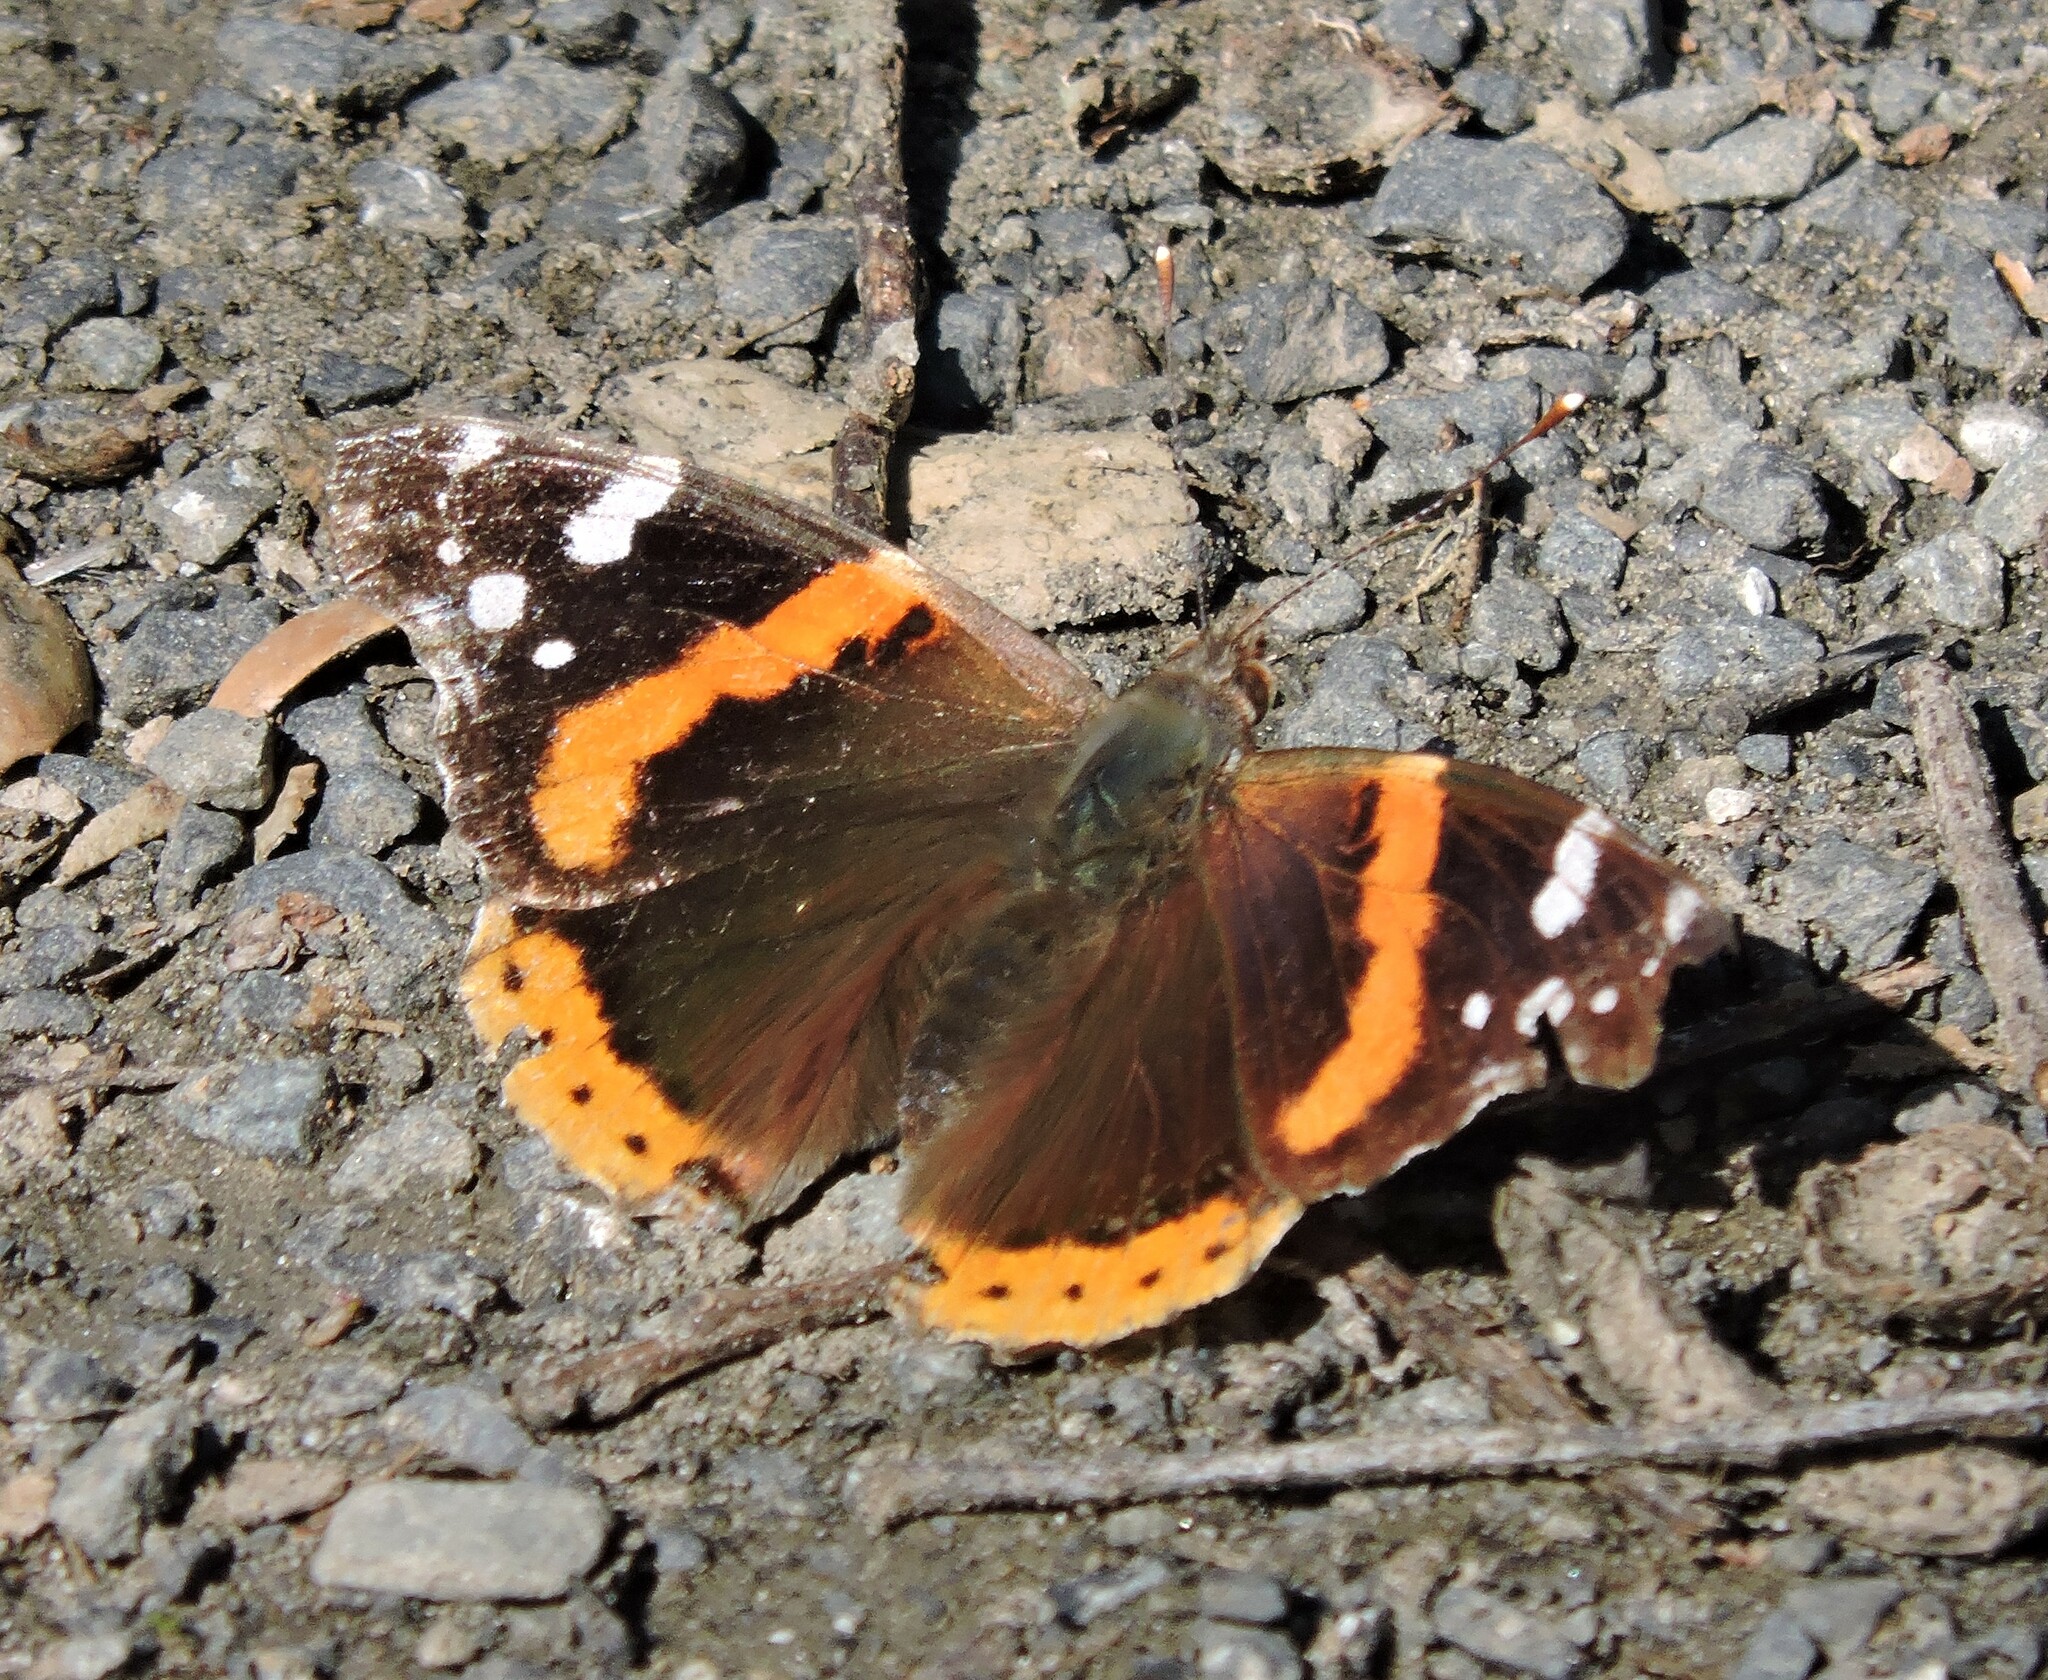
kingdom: Animalia
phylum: Arthropoda
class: Insecta
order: Lepidoptera
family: Nymphalidae
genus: Vanessa
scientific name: Vanessa atalanta
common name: Red admiral
